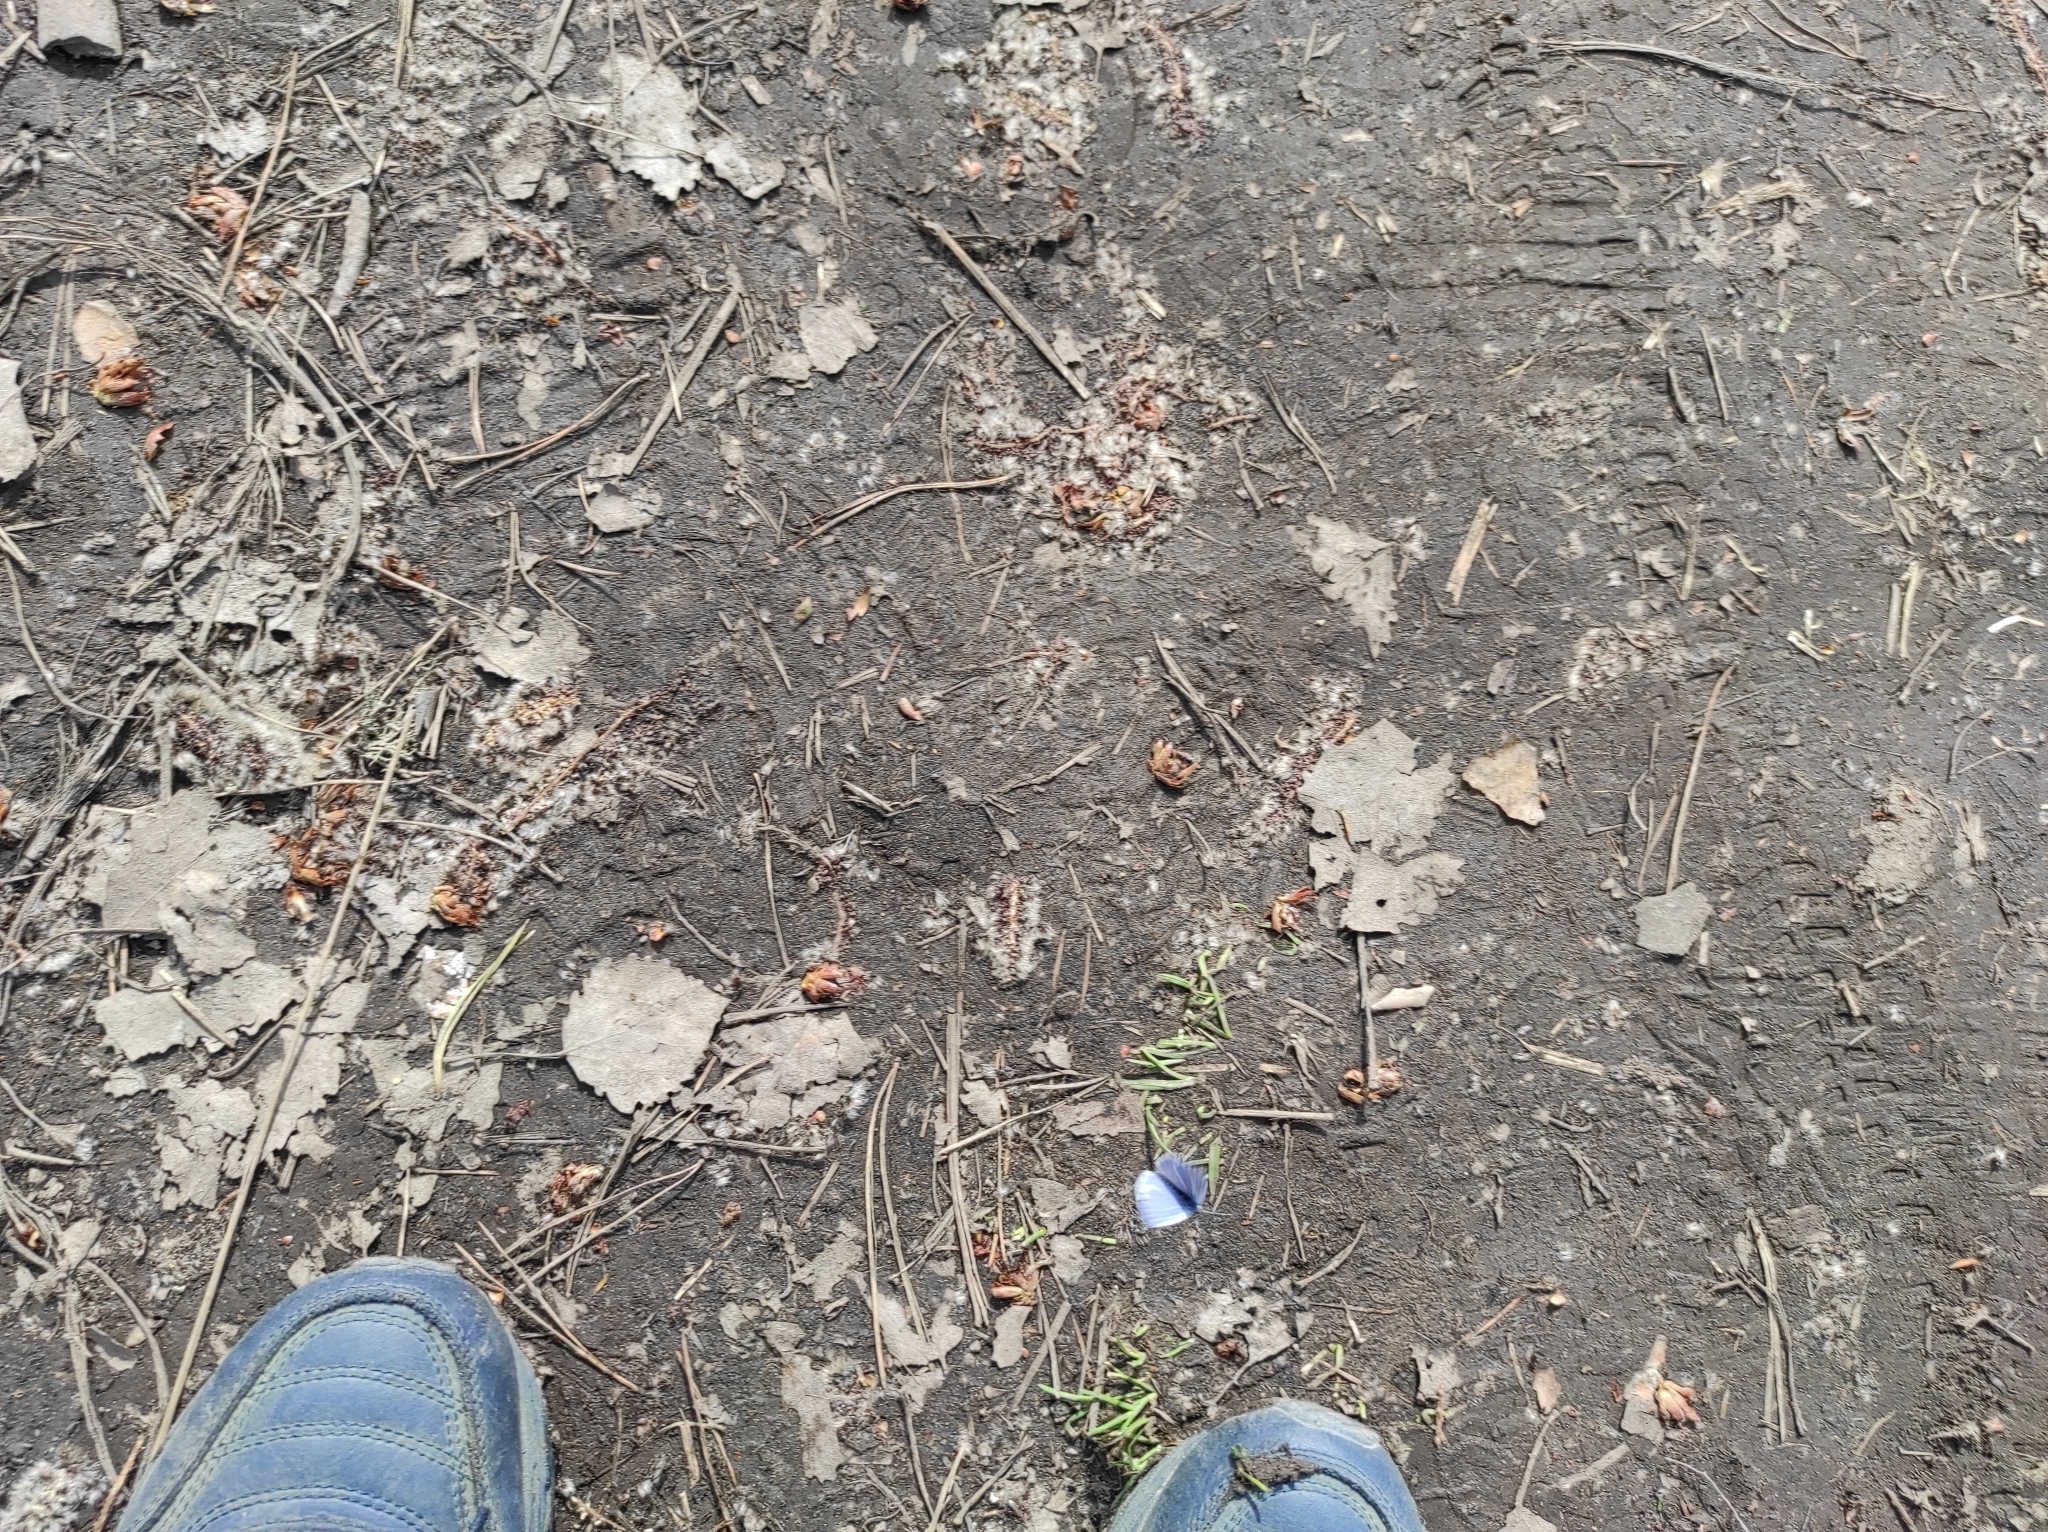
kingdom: Animalia
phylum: Arthropoda
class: Insecta
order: Lepidoptera
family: Lycaenidae
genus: Celastrina
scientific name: Celastrina argiolus
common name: Holly blue
